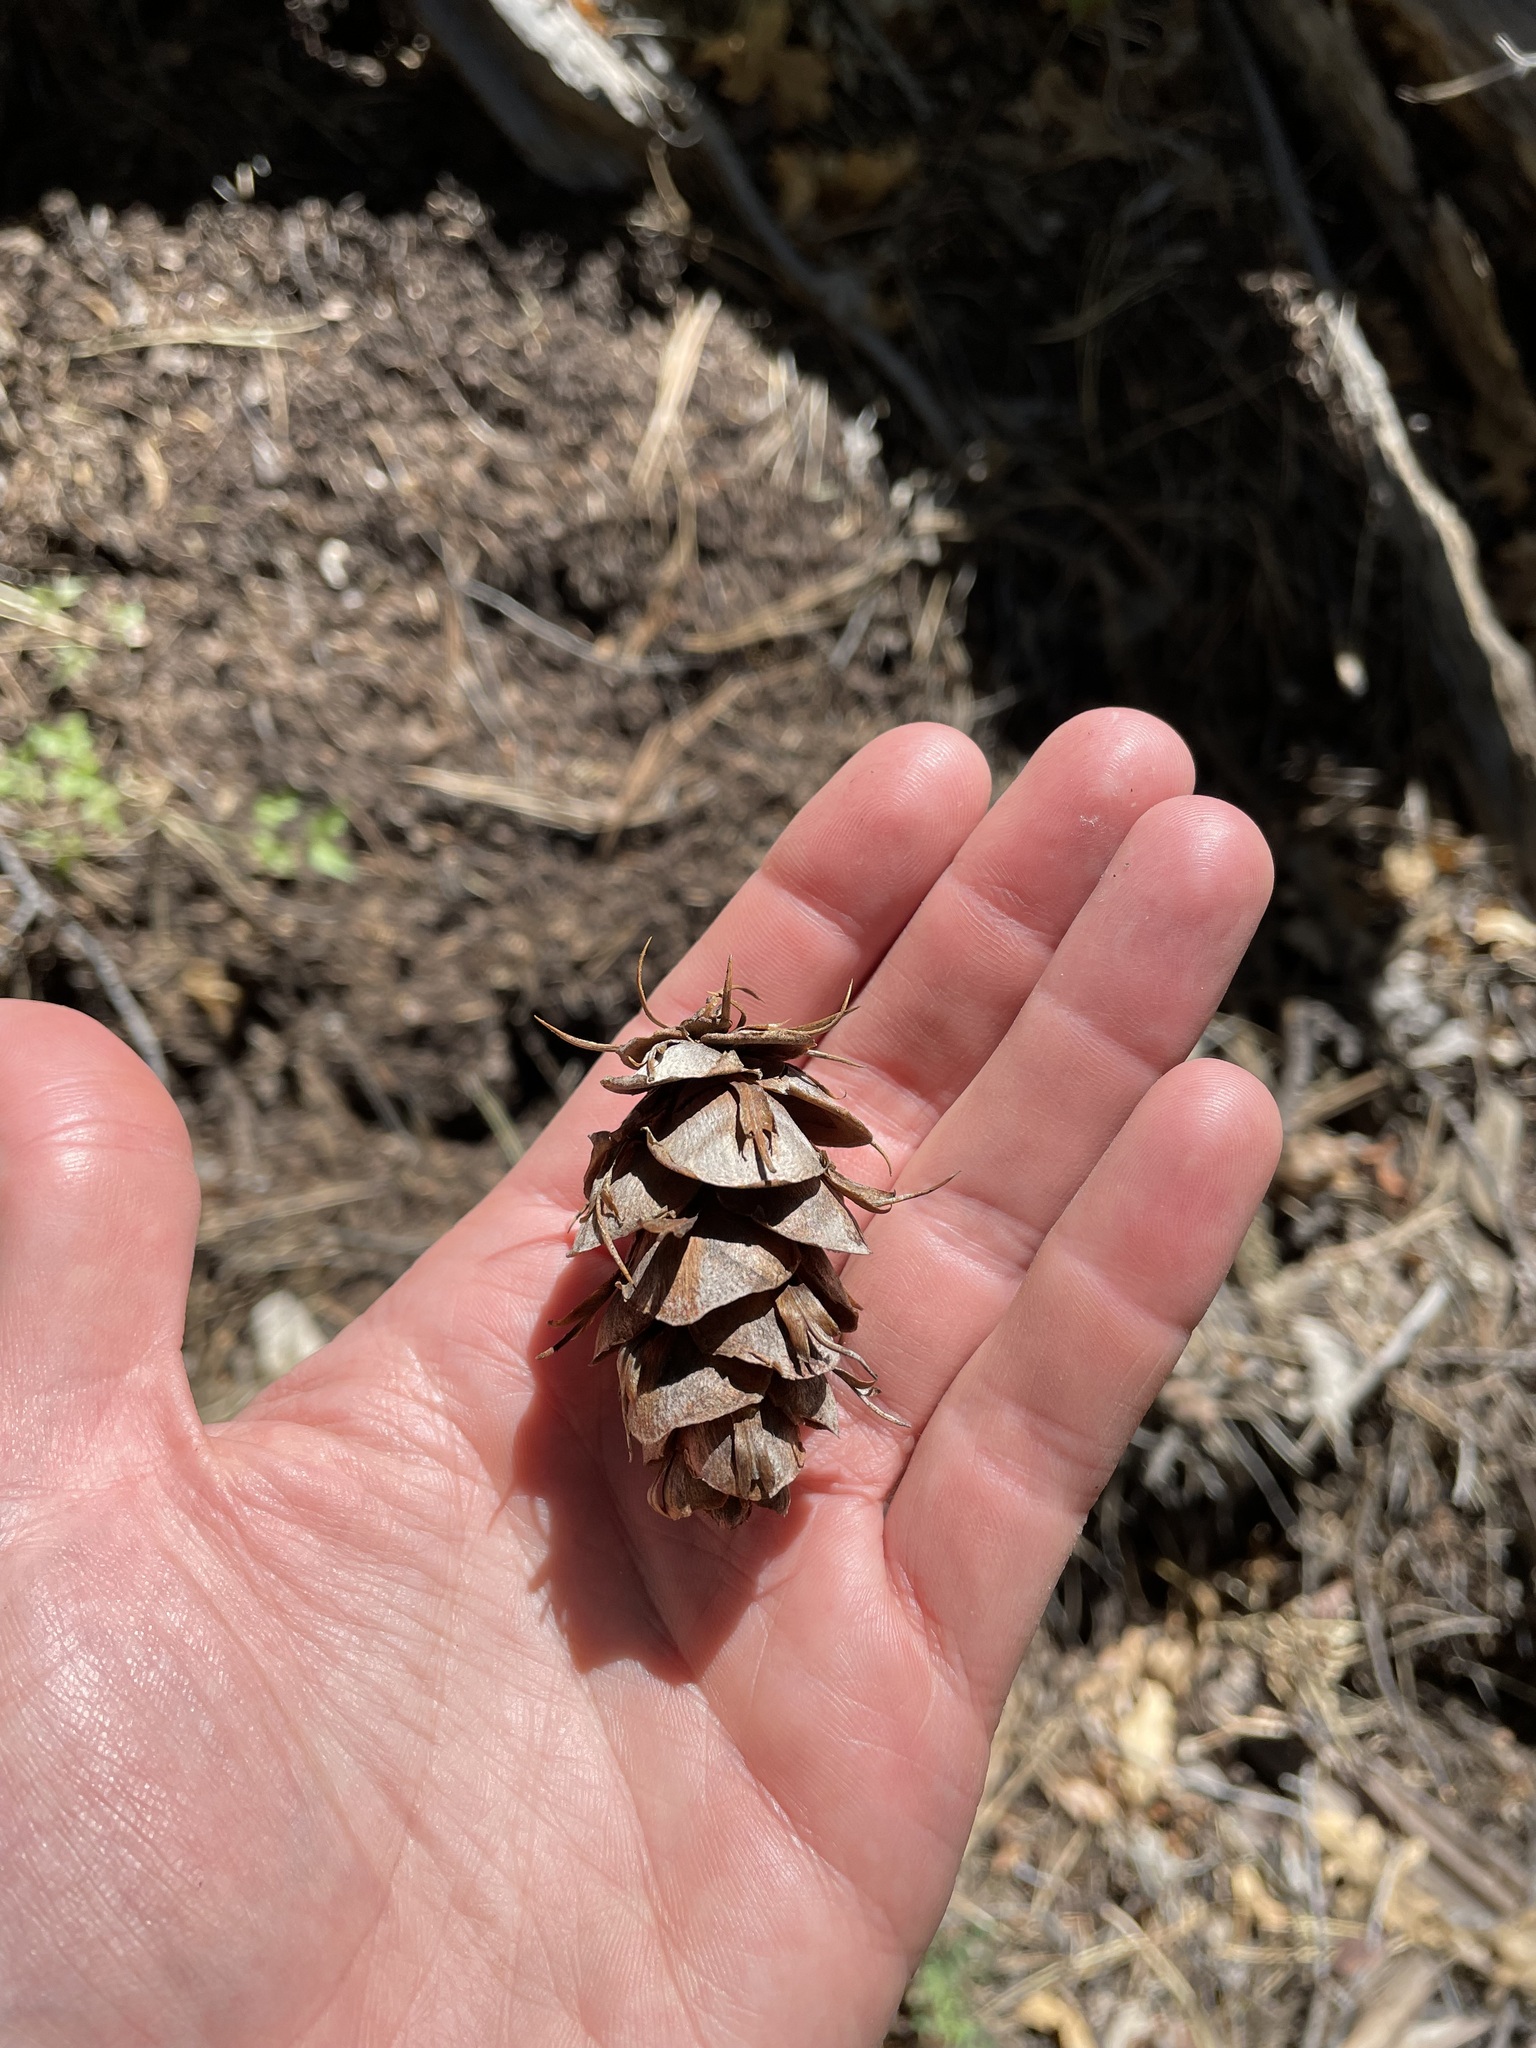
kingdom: Plantae
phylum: Tracheophyta
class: Pinopsida
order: Pinales
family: Pinaceae
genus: Pseudotsuga
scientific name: Pseudotsuga menziesii
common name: Douglas fir
